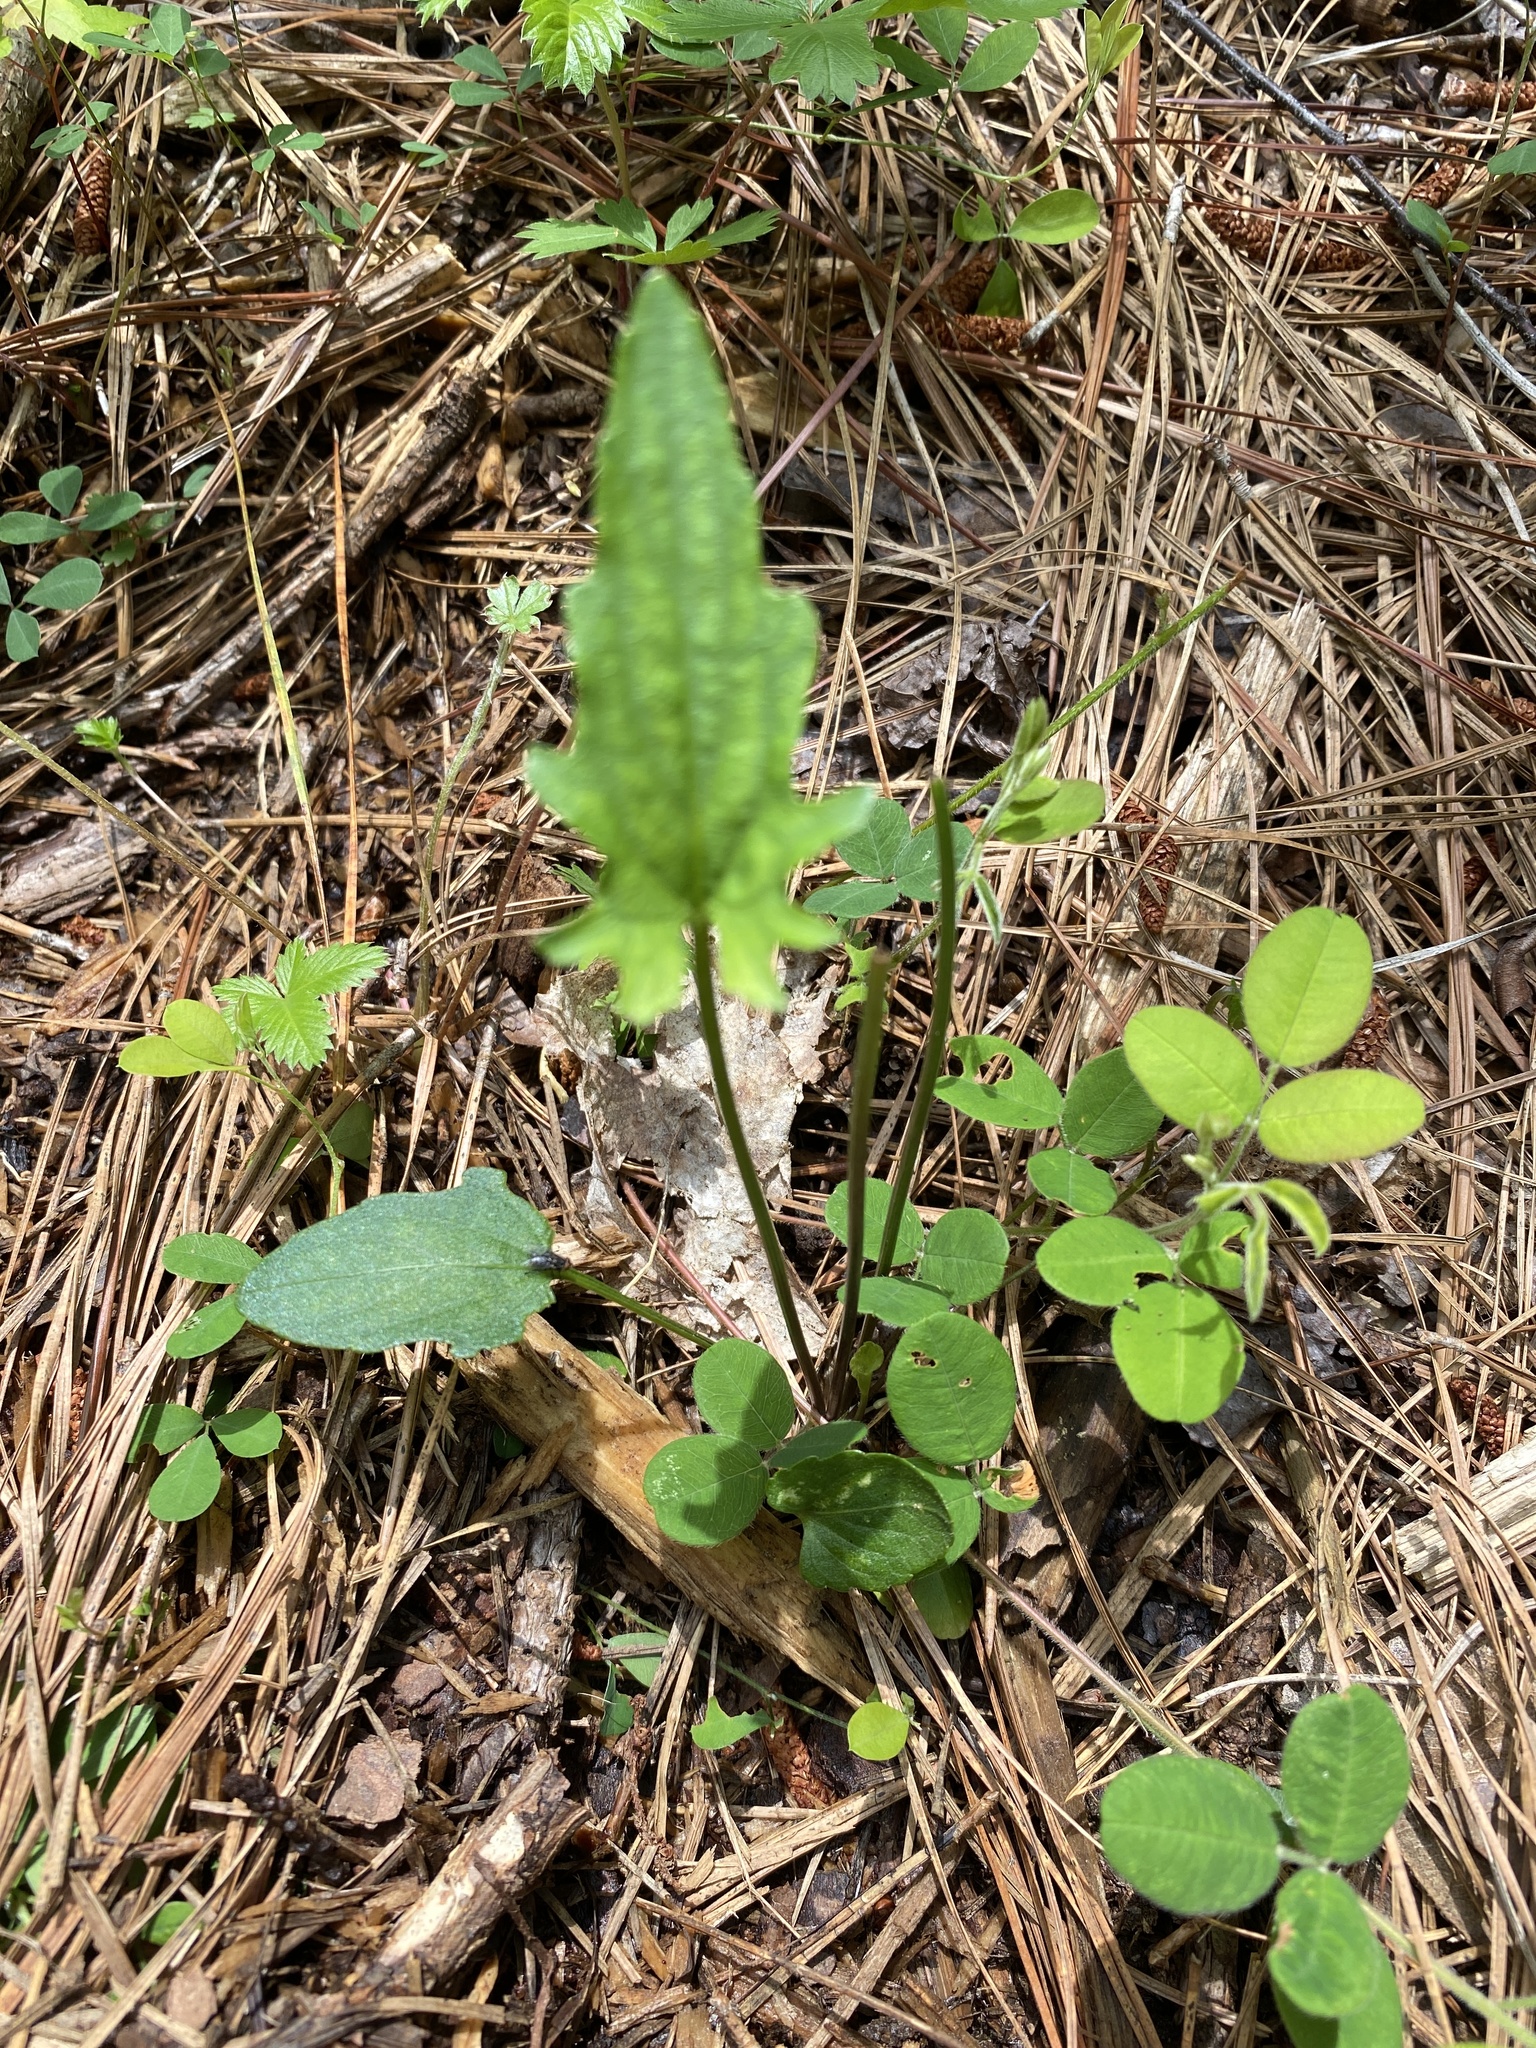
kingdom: Plantae
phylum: Tracheophyta
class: Magnoliopsida
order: Malpighiales
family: Violaceae
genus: Viola
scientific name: Viola sagittata
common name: Arrowhead violet
